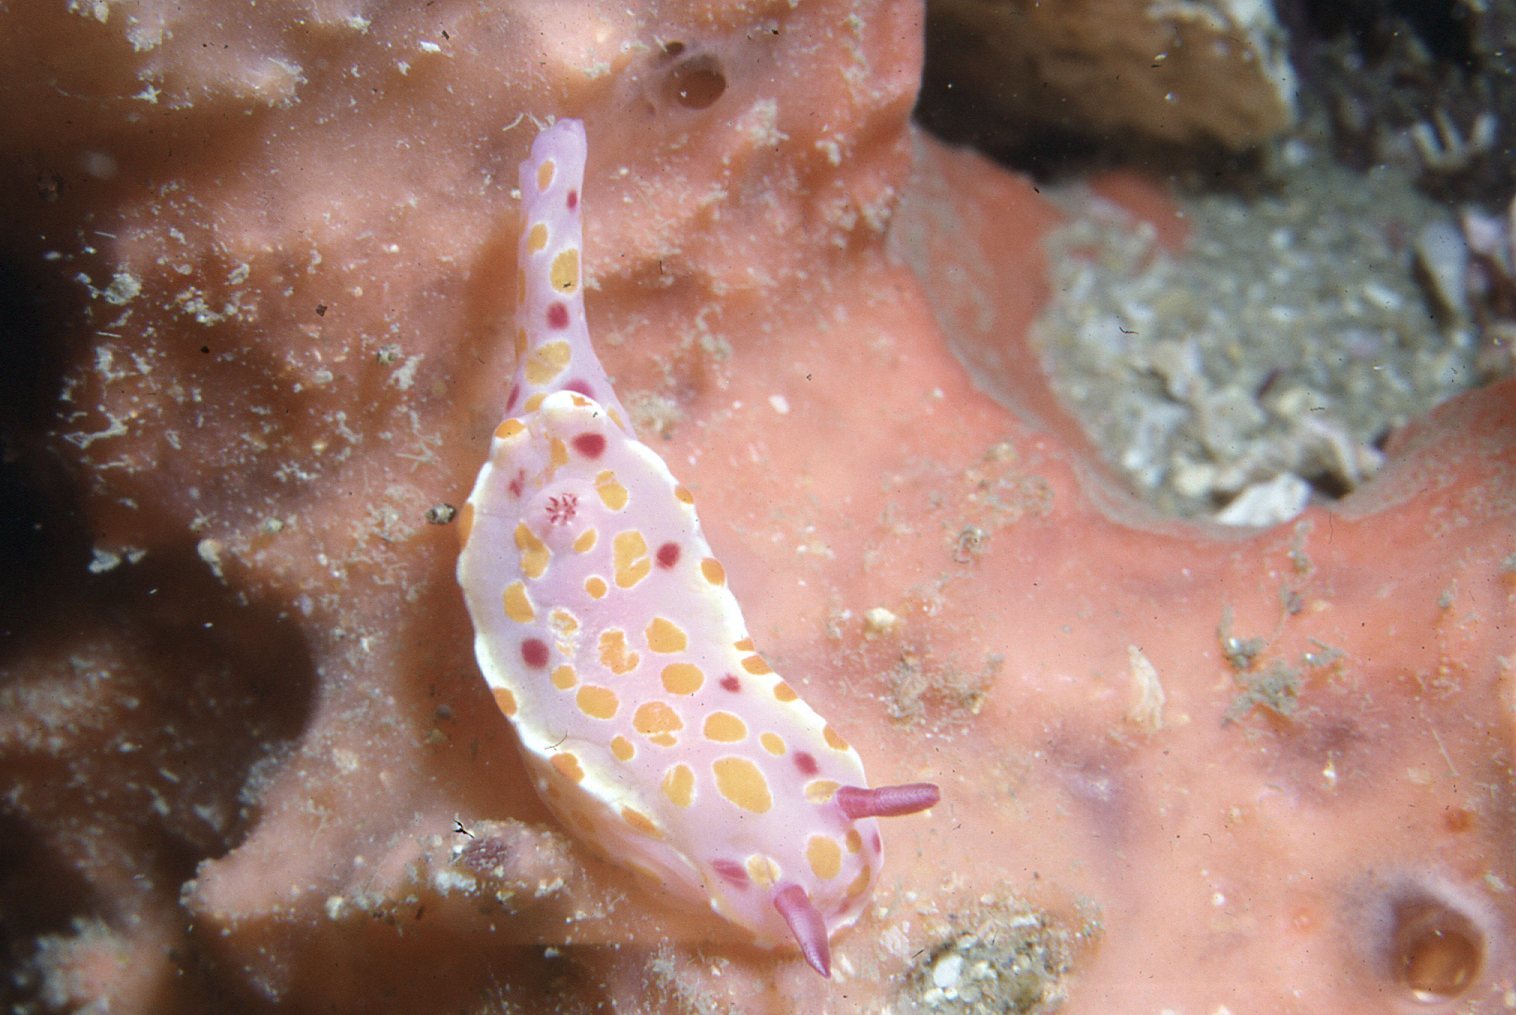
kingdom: Animalia
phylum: Mollusca
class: Gastropoda
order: Nudibranchia
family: Chromodorididae
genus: Ceratosoma
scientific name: Ceratosoma amoenum
